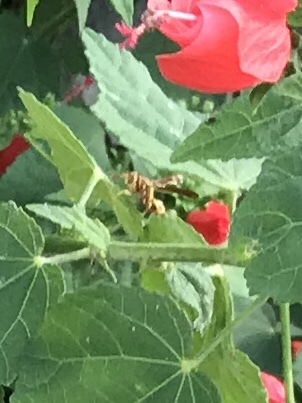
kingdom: Animalia
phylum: Arthropoda
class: Insecta
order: Hymenoptera
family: Eumenidae
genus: Polistes
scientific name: Polistes exclamans
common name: Paper wasp
